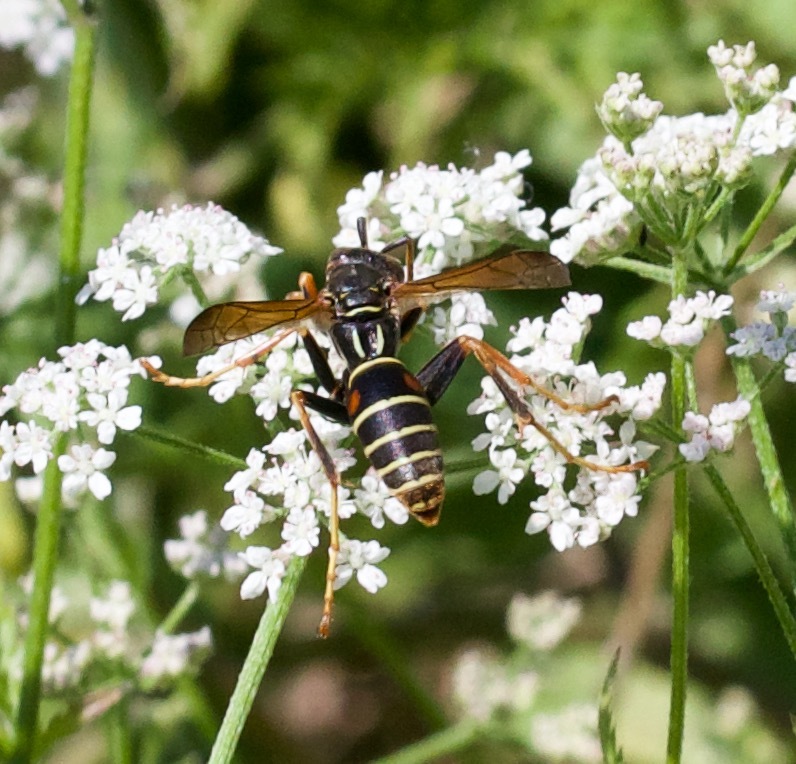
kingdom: Animalia
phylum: Arthropoda
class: Insecta
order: Hymenoptera
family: Eumenidae
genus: Polistes
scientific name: Polistes fuscatus
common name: Dark paper wasp
